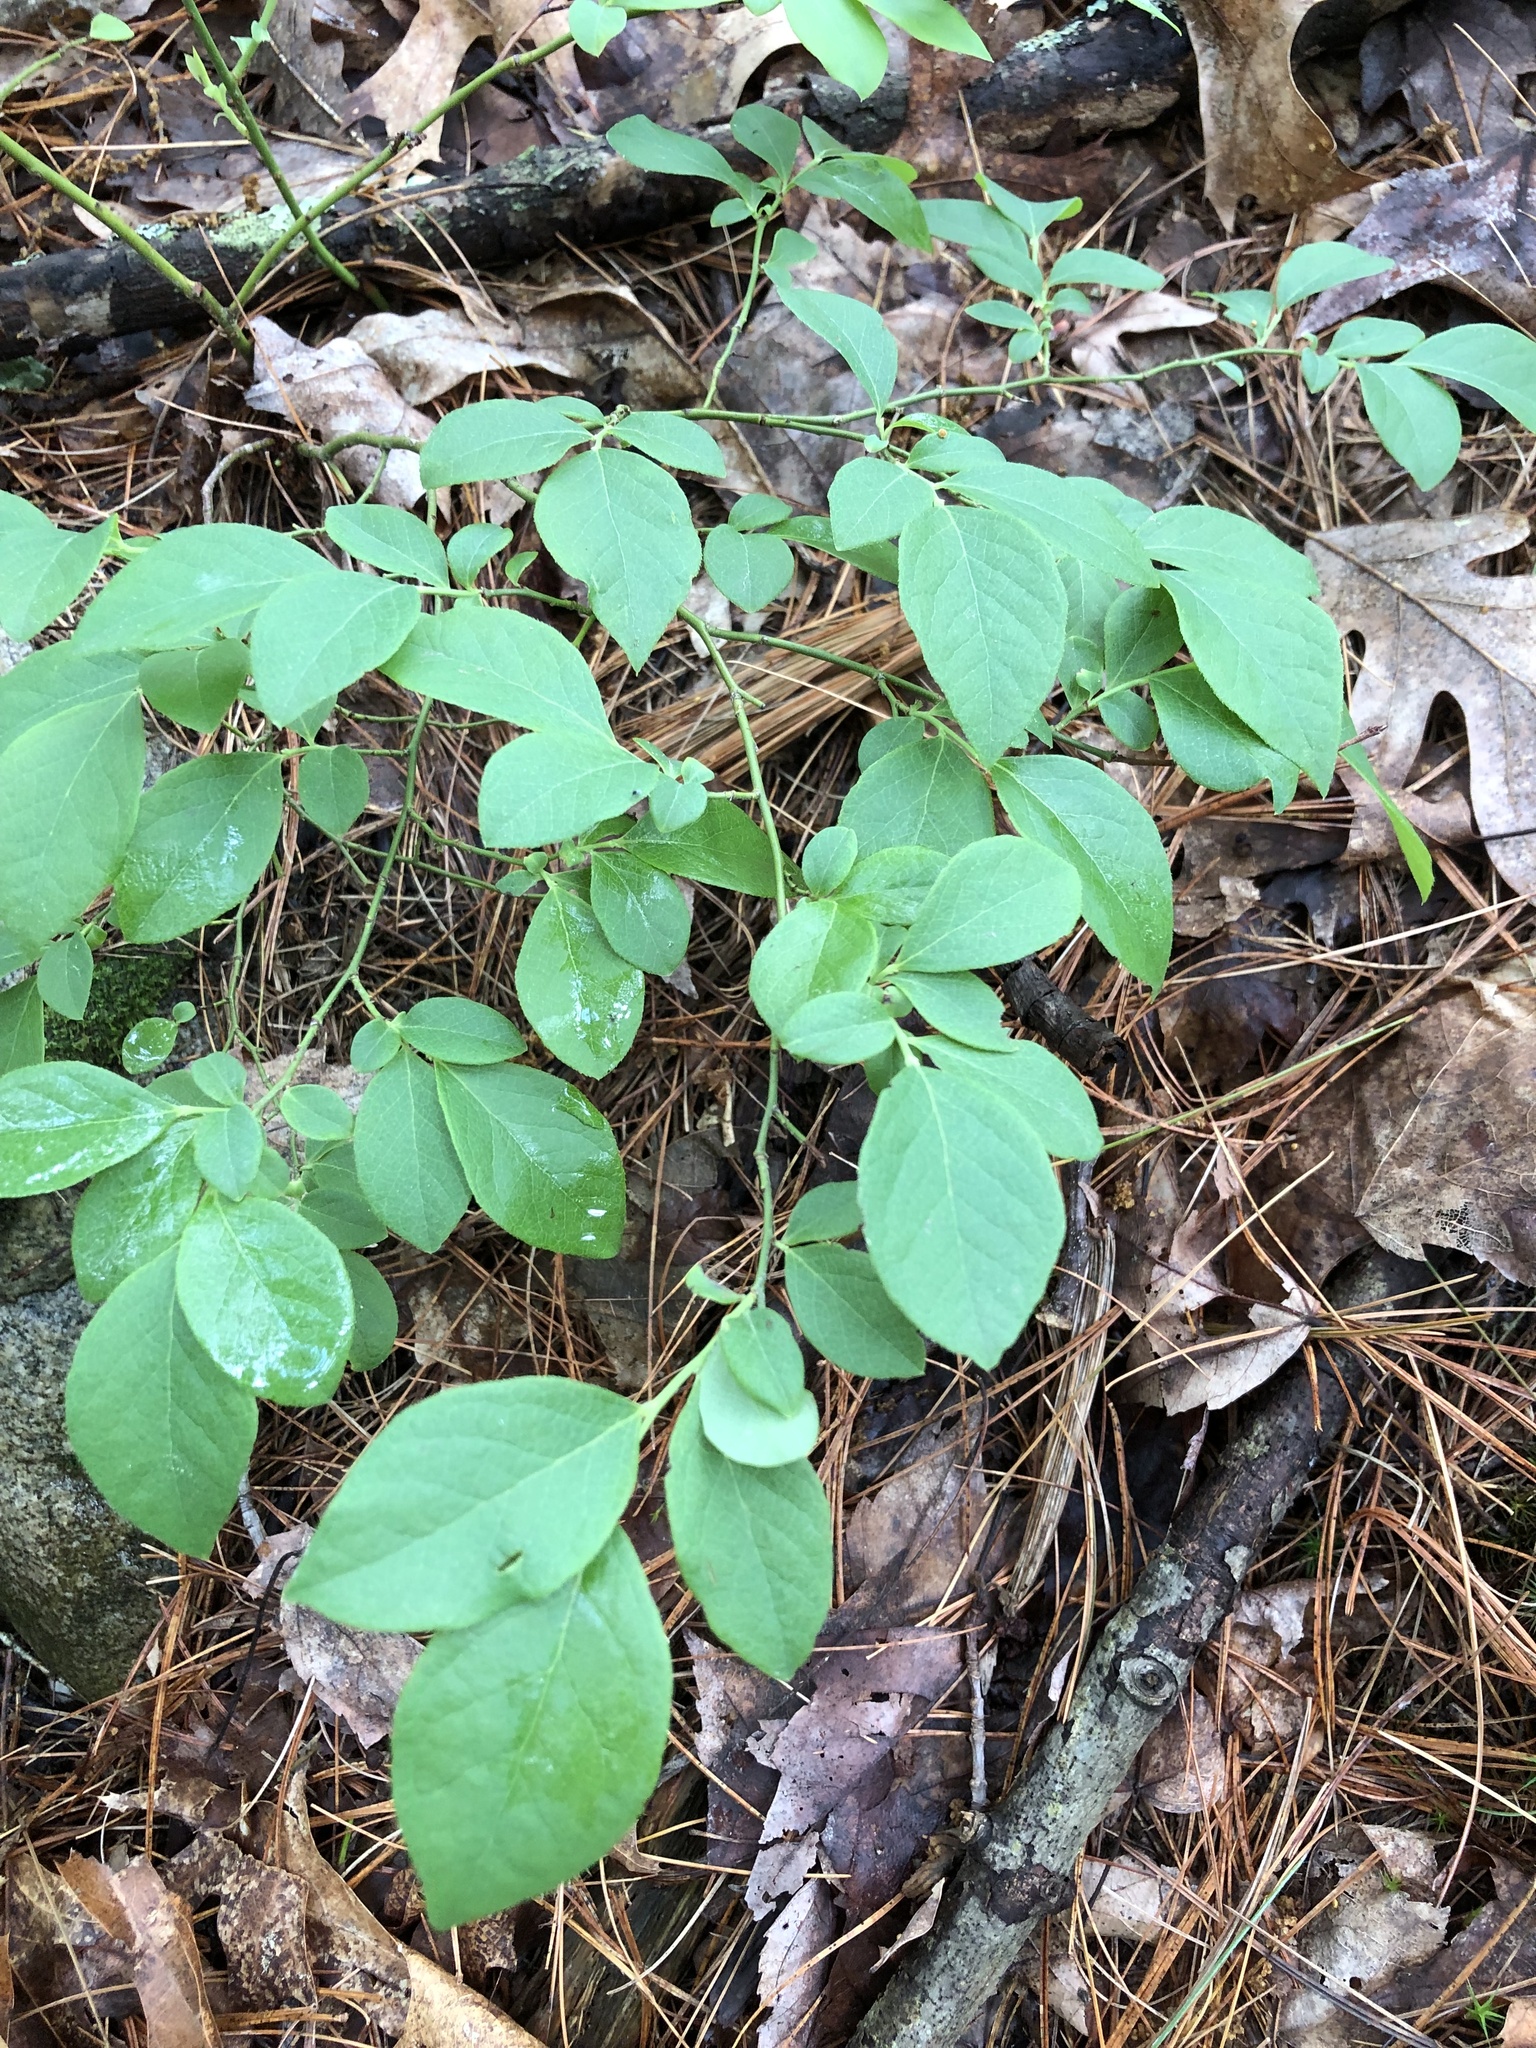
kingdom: Plantae
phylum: Tracheophyta
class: Magnoliopsida
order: Ericales
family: Ericaceae
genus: Vaccinium
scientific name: Vaccinium pallidum
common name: Blue ridge blueberry
